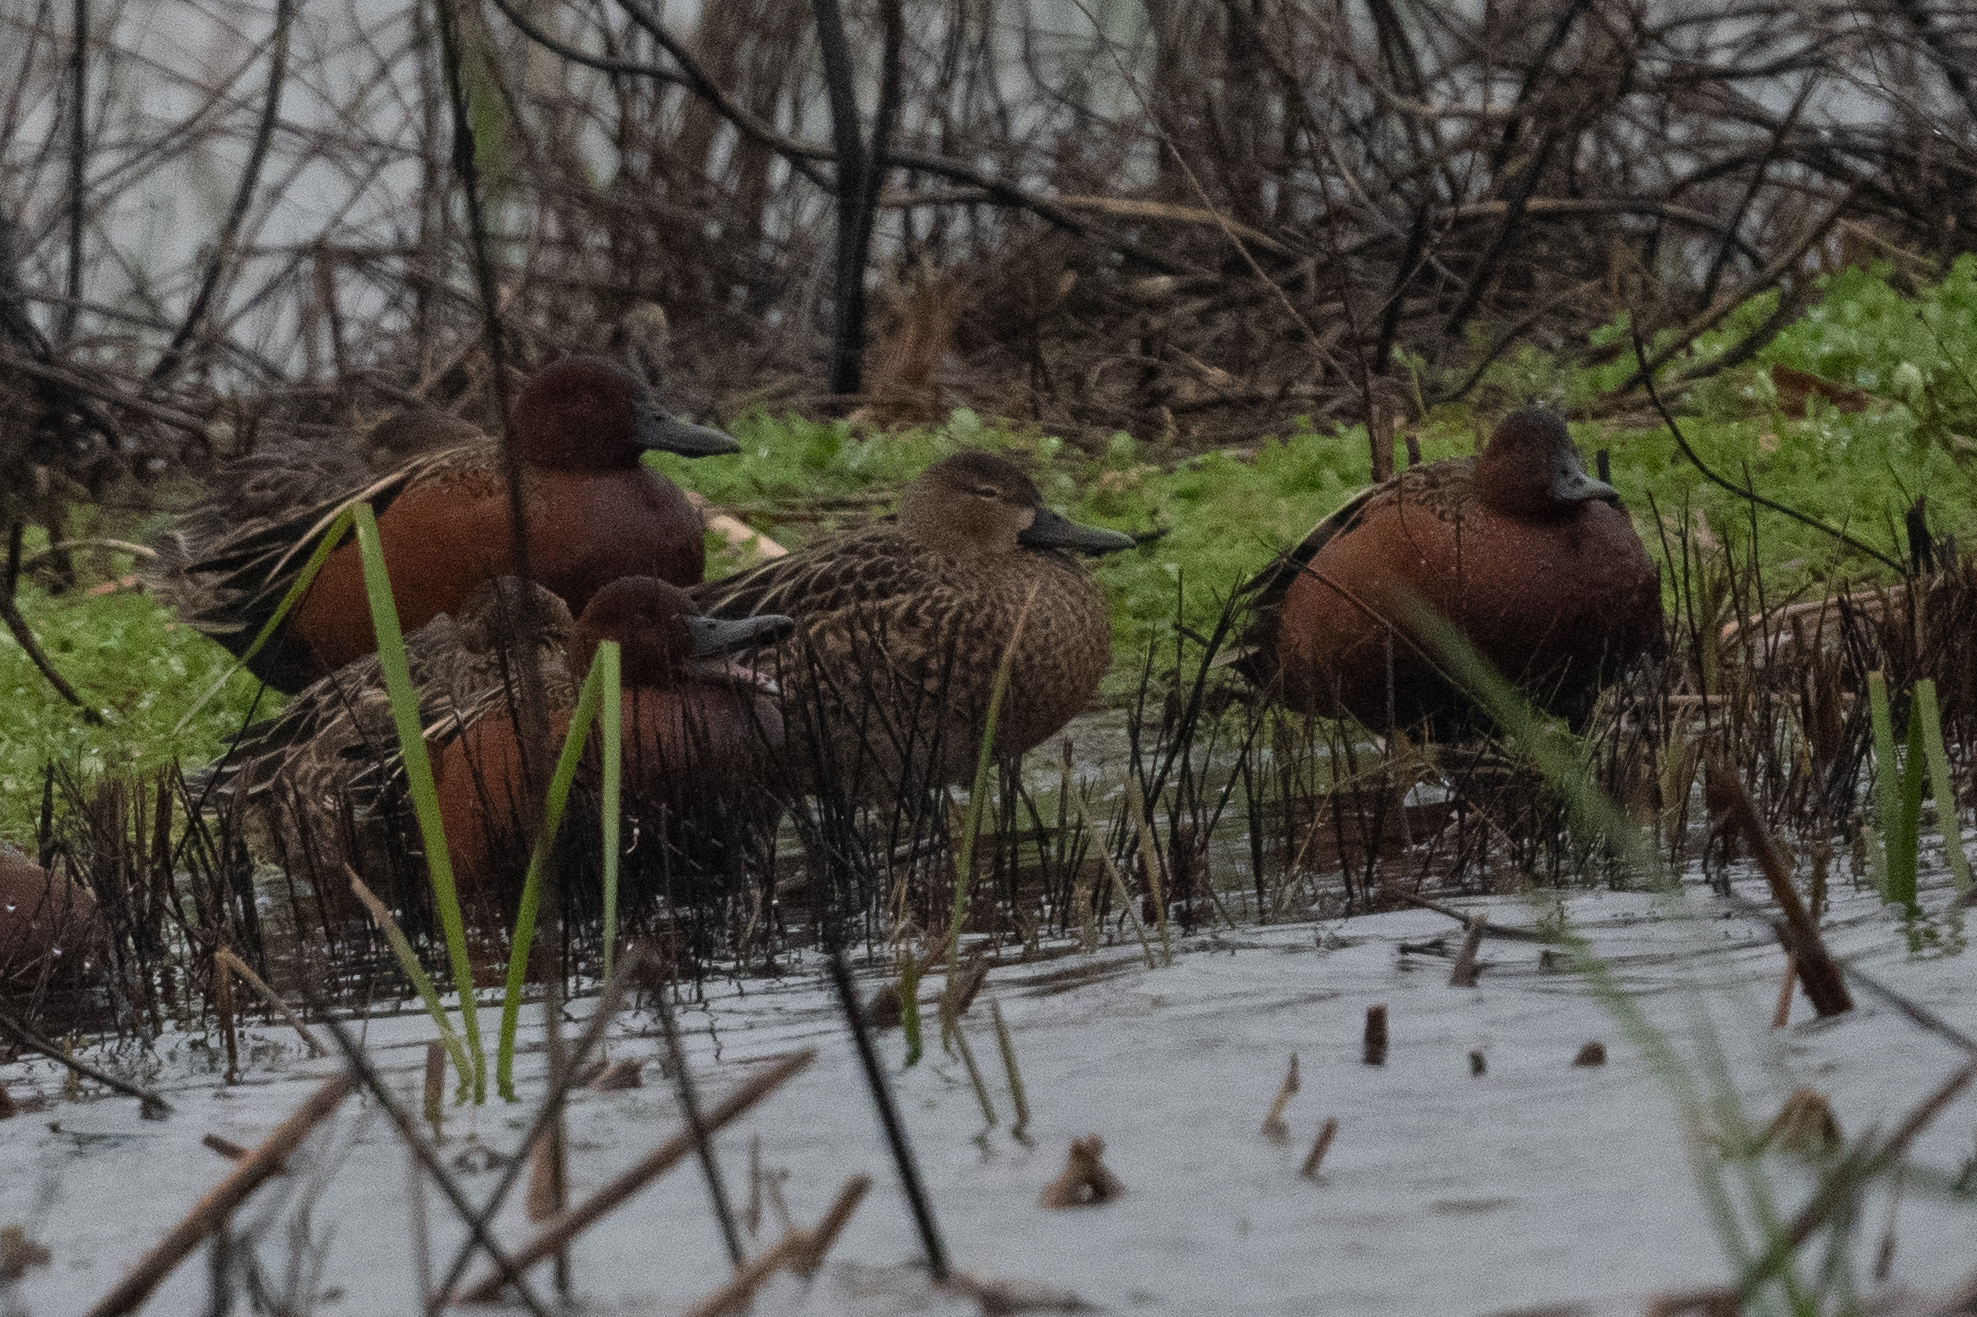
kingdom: Animalia
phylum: Chordata
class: Aves
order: Anseriformes
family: Anatidae
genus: Spatula
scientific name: Spatula cyanoptera
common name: Cinnamon teal
